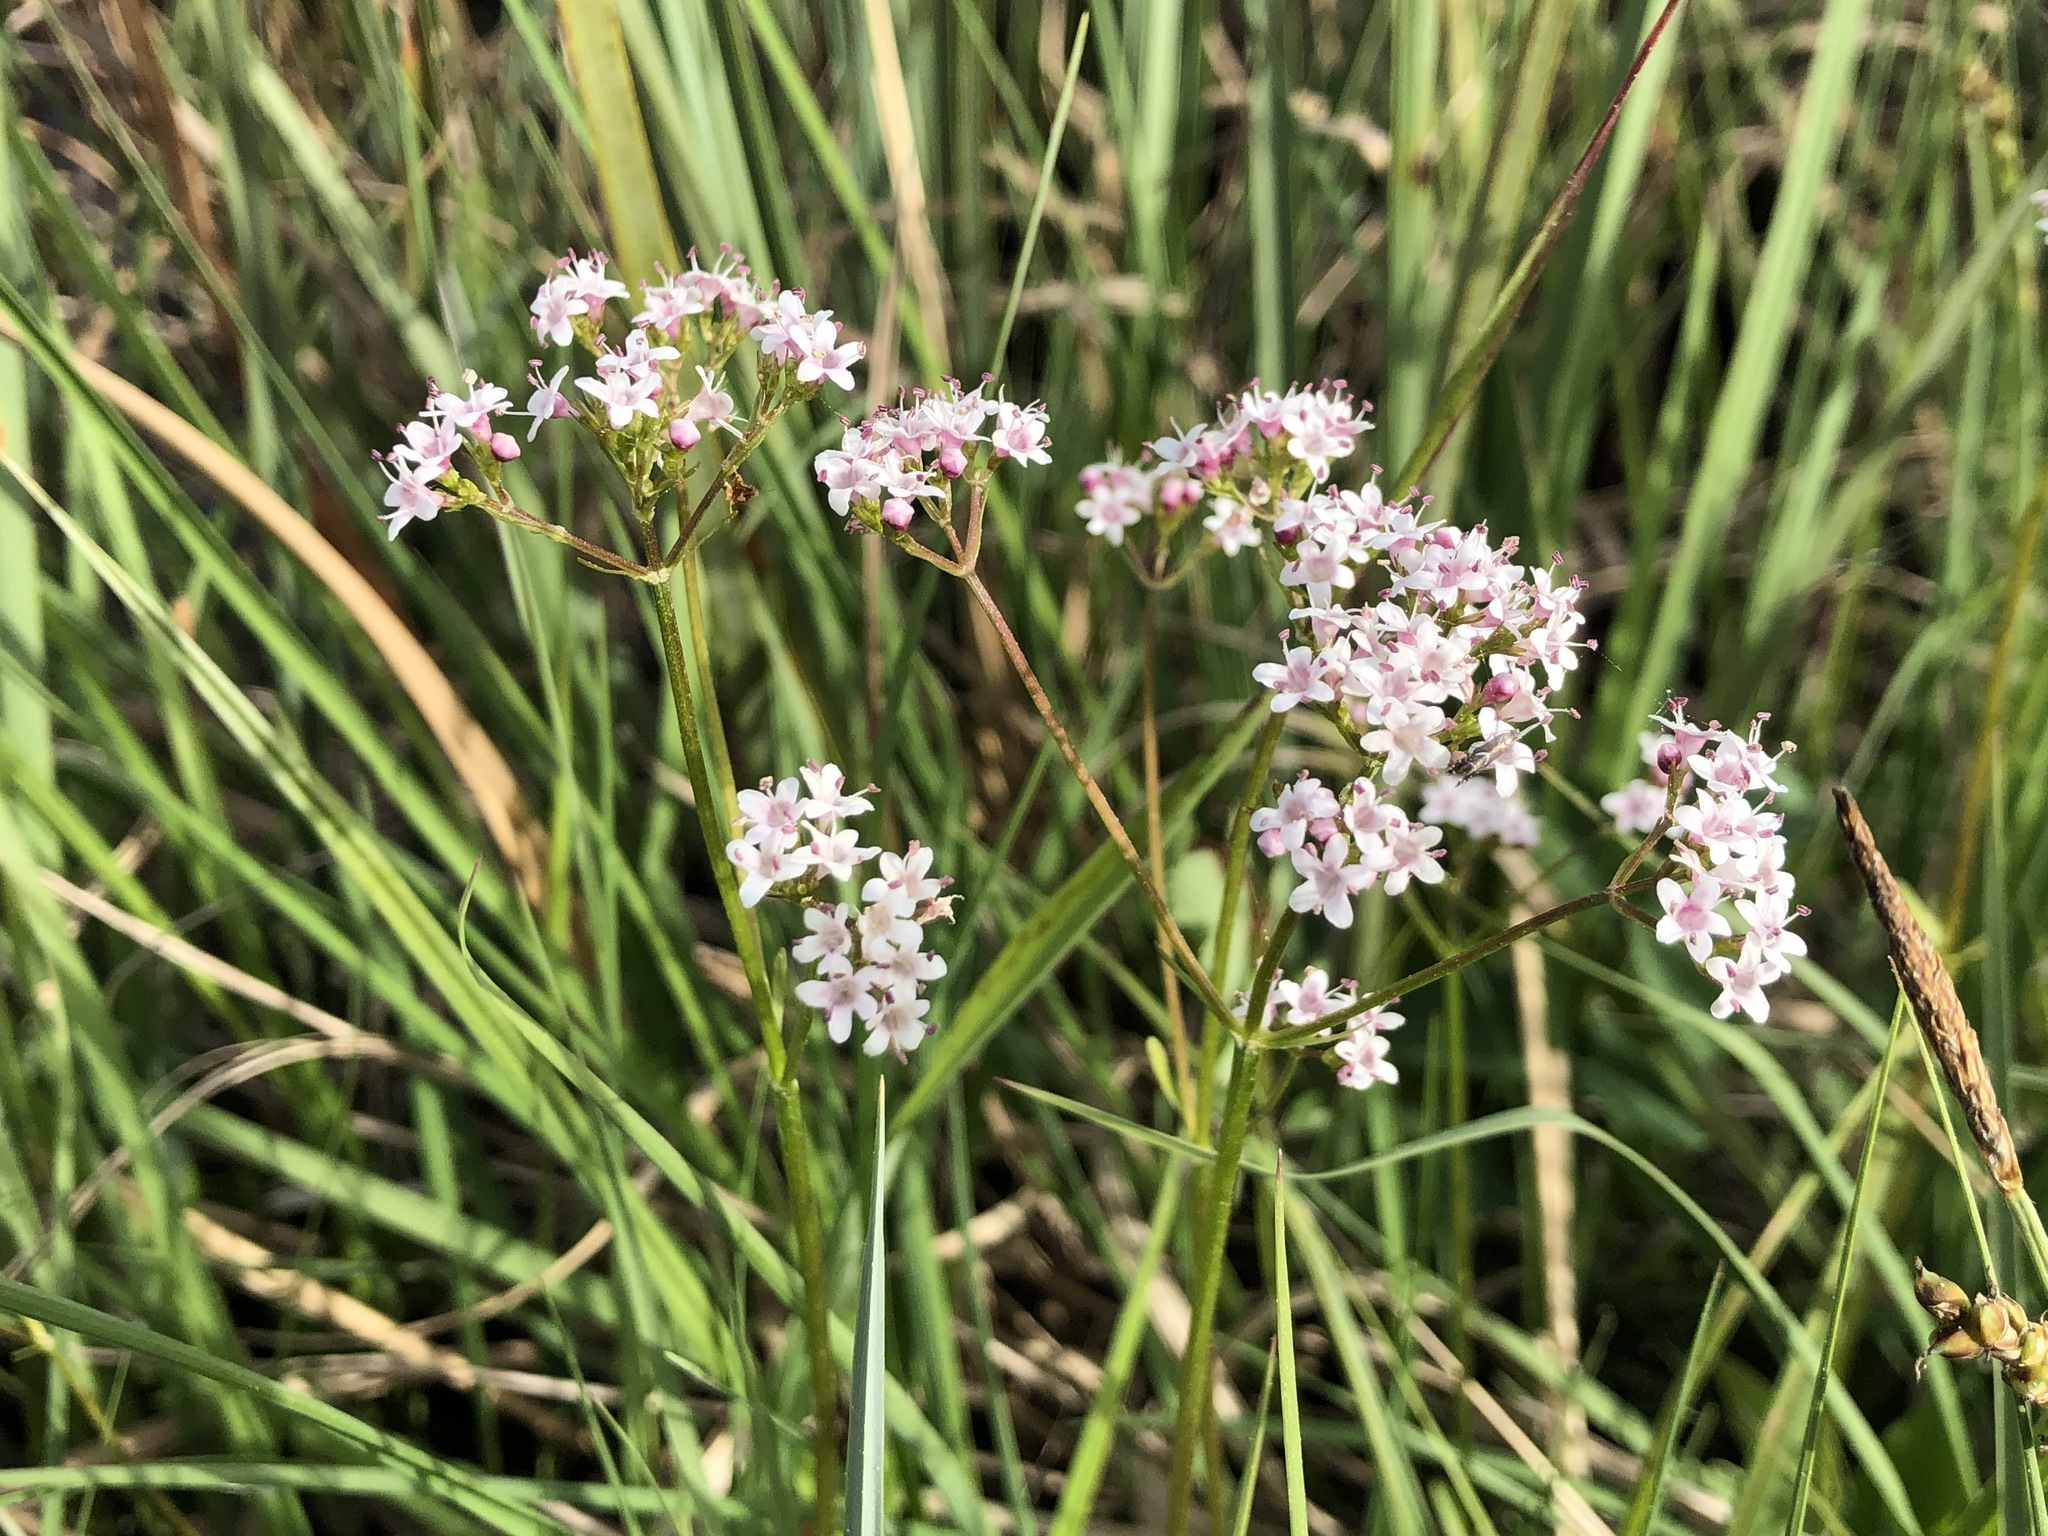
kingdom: Plantae
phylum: Tracheophyta
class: Magnoliopsida
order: Dipsacales
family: Caprifoliaceae
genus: Valeriana
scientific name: Valeriana dioica
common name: Marsh valerian
